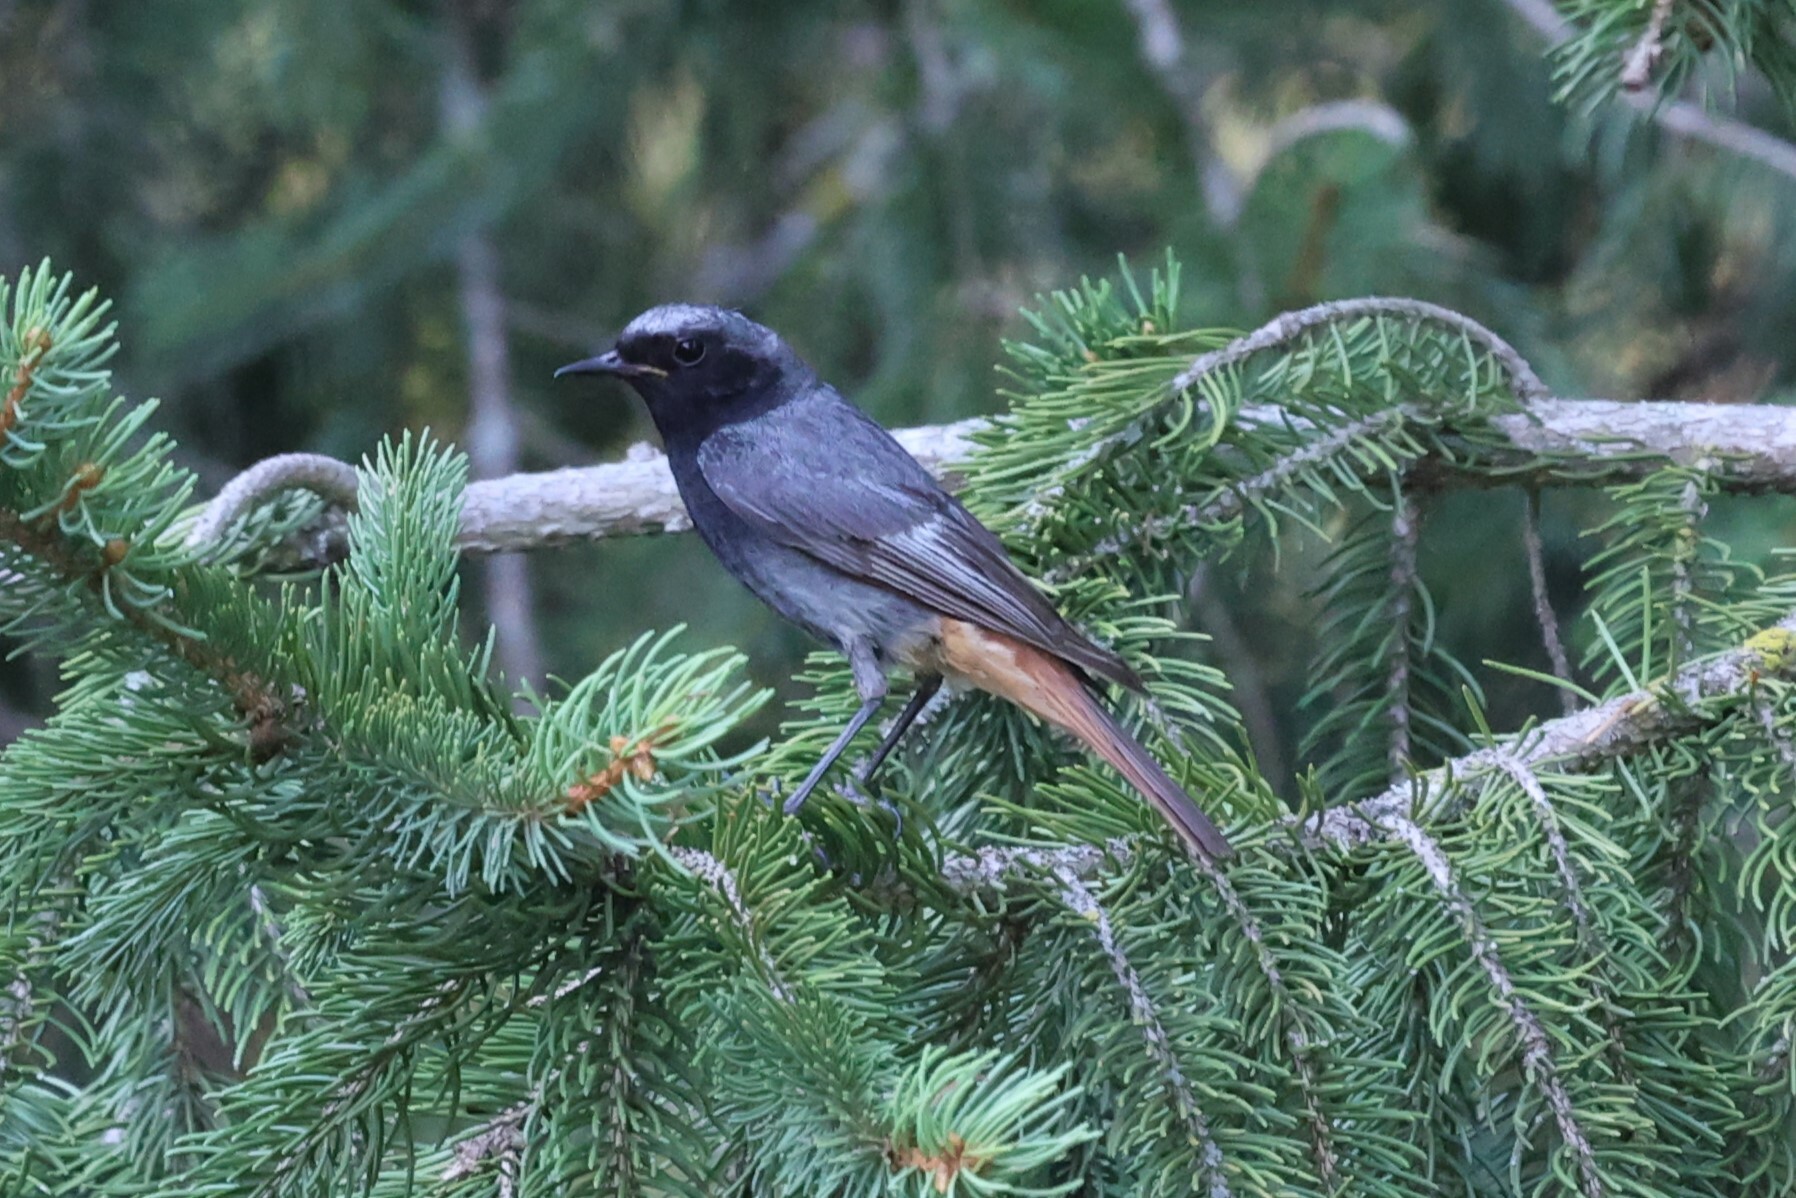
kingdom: Animalia
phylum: Chordata
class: Aves
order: Passeriformes
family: Muscicapidae
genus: Phoenicurus
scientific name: Phoenicurus ochruros
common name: Black redstart
